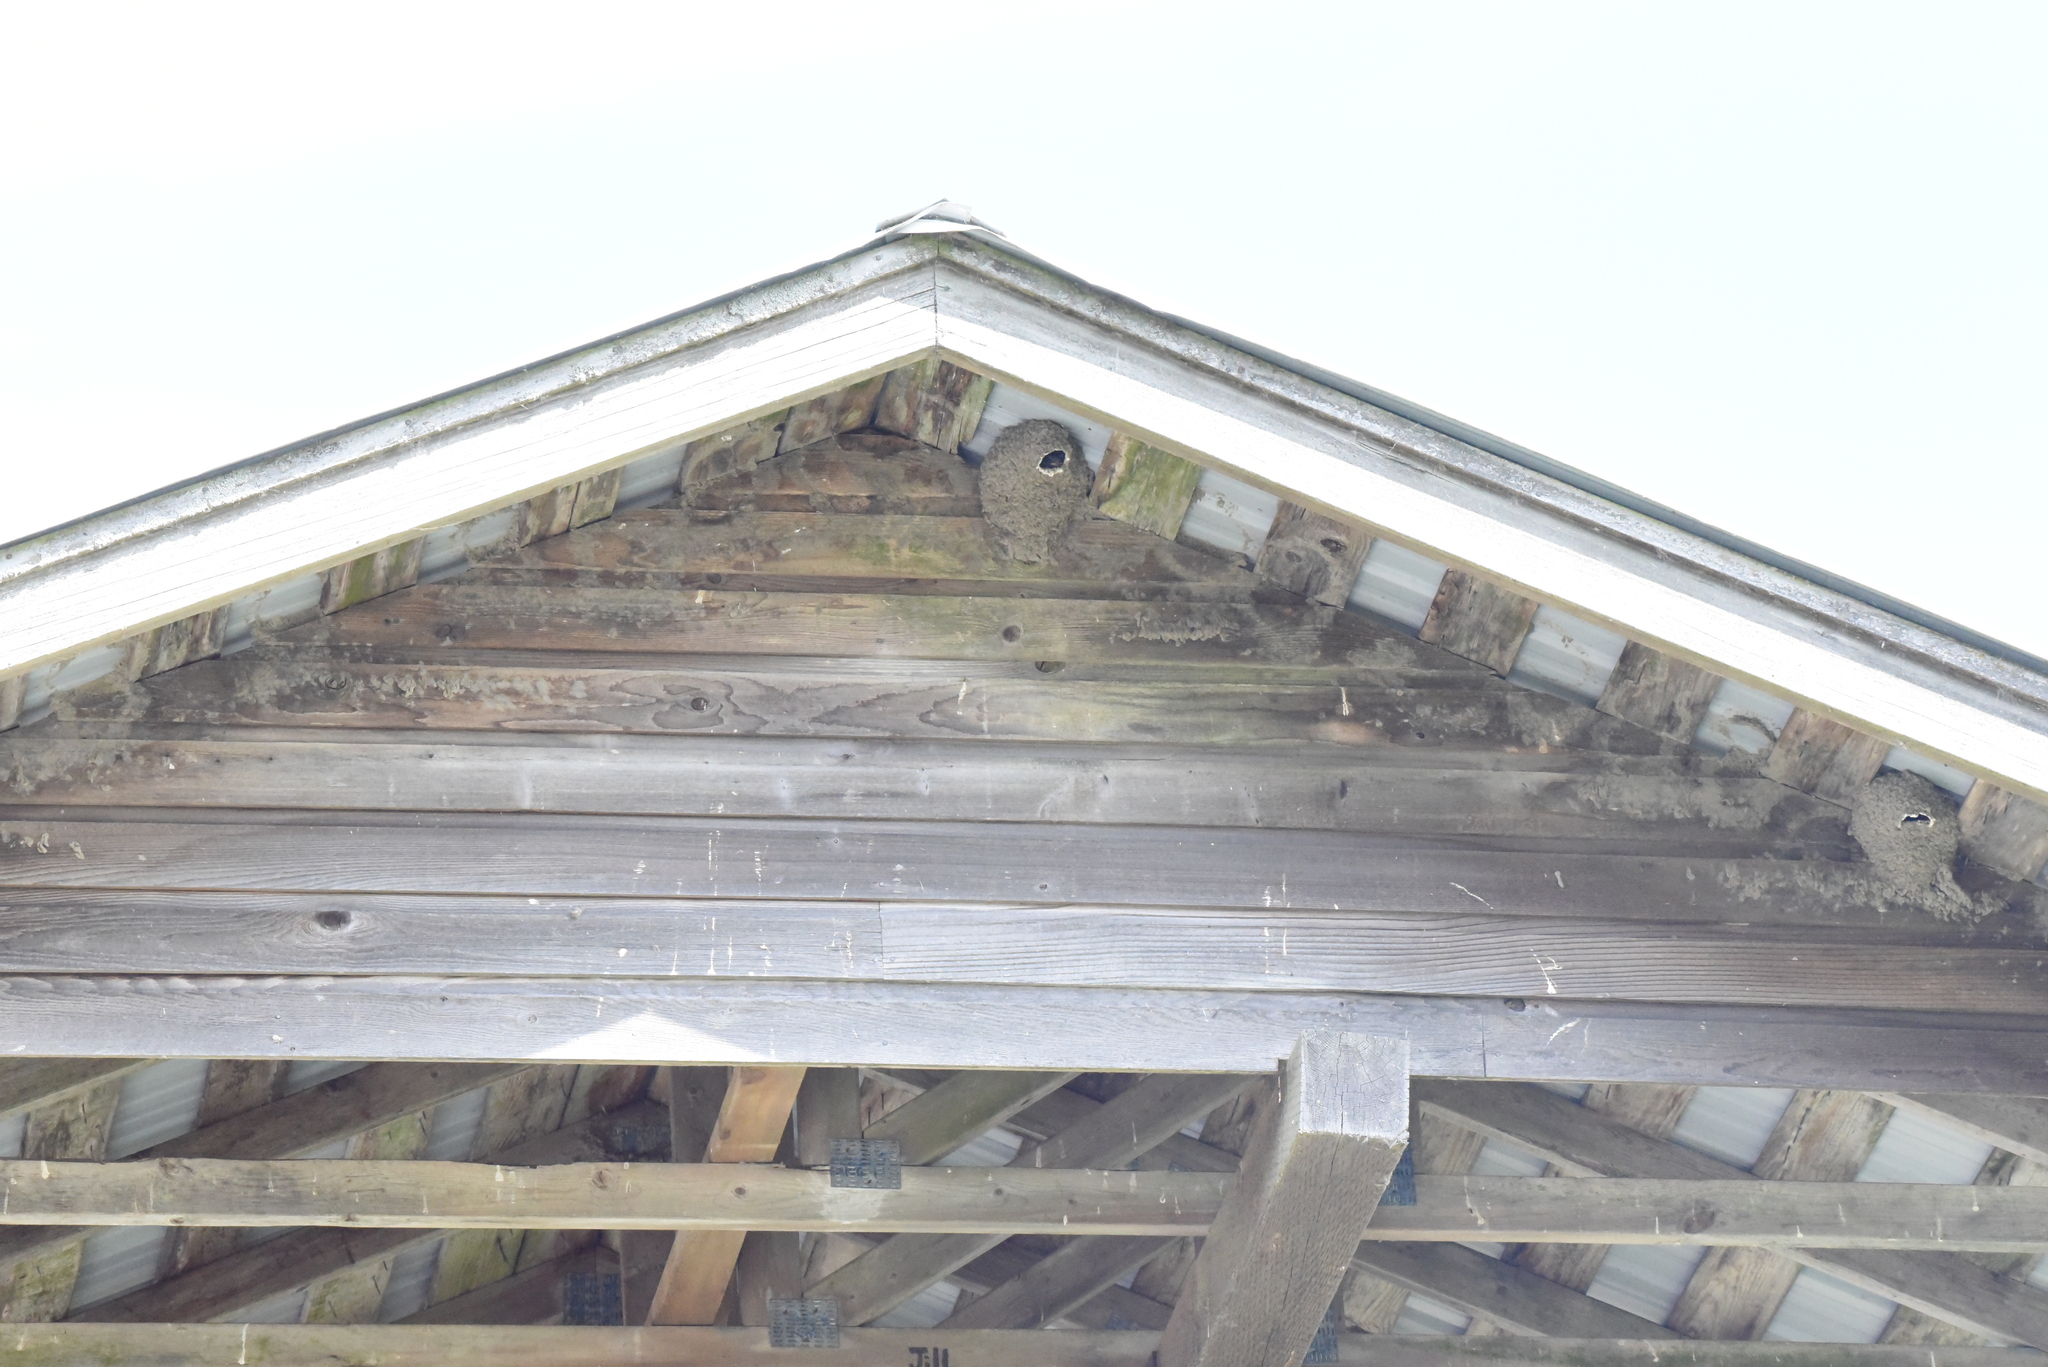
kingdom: Animalia
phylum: Chordata
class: Aves
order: Passeriformes
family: Hirundinidae
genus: Petrochelidon
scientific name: Petrochelidon pyrrhonota
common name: American cliff swallow
